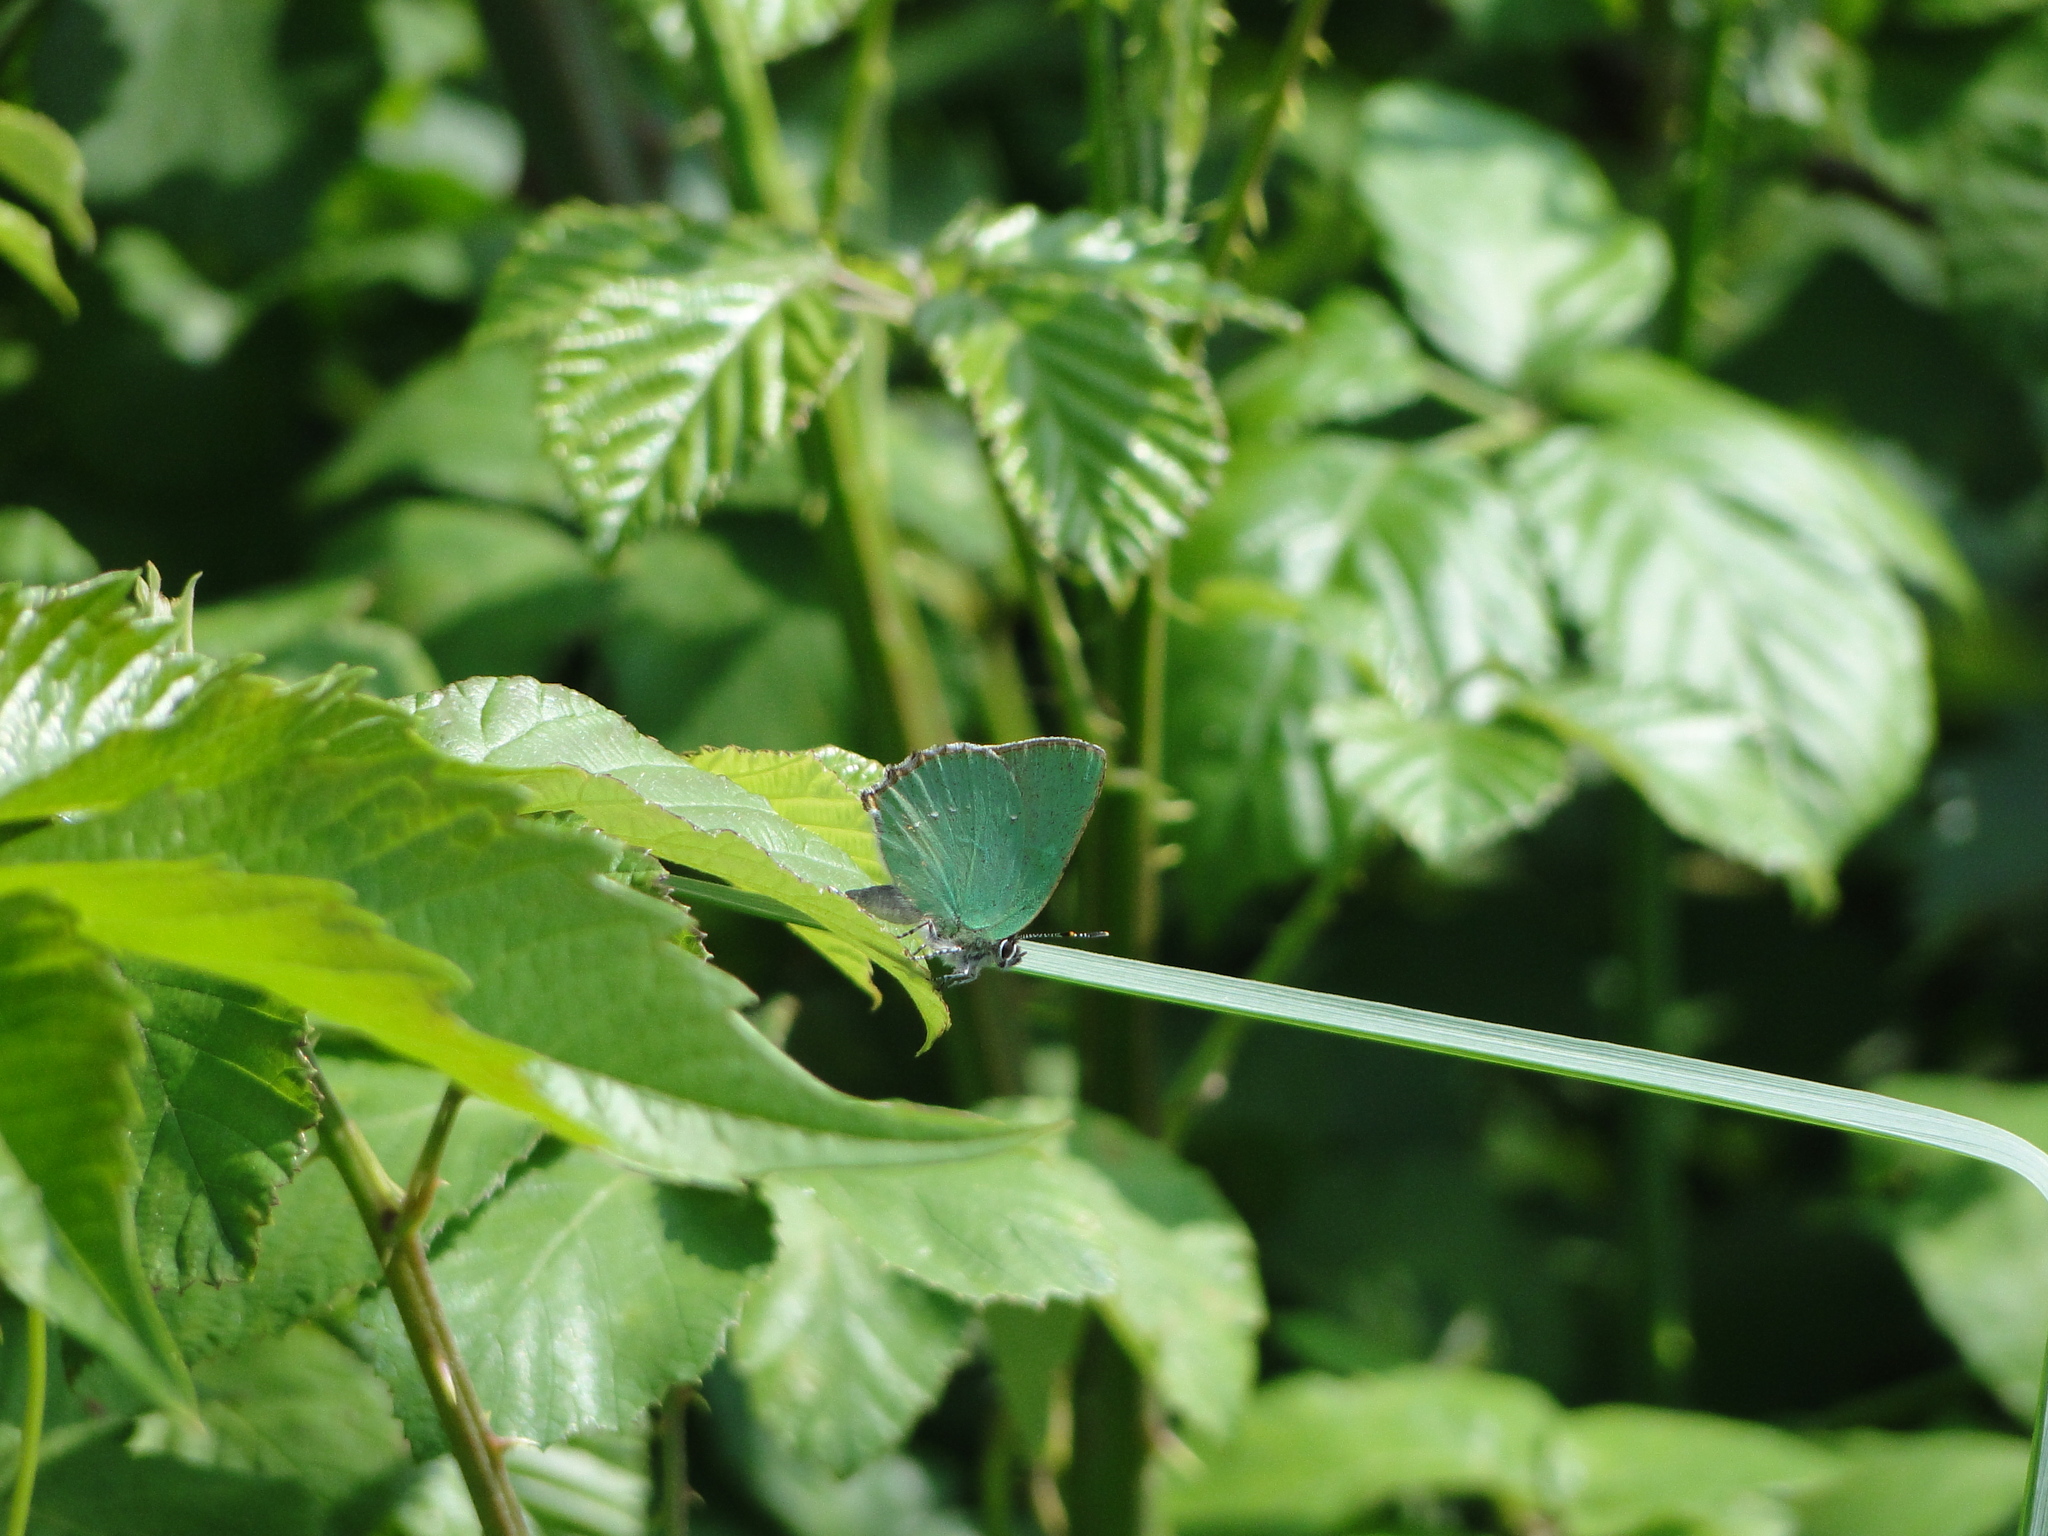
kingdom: Animalia
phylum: Arthropoda
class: Insecta
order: Lepidoptera
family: Lycaenidae
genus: Callophrys
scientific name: Callophrys rubi
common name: Green hairstreak
